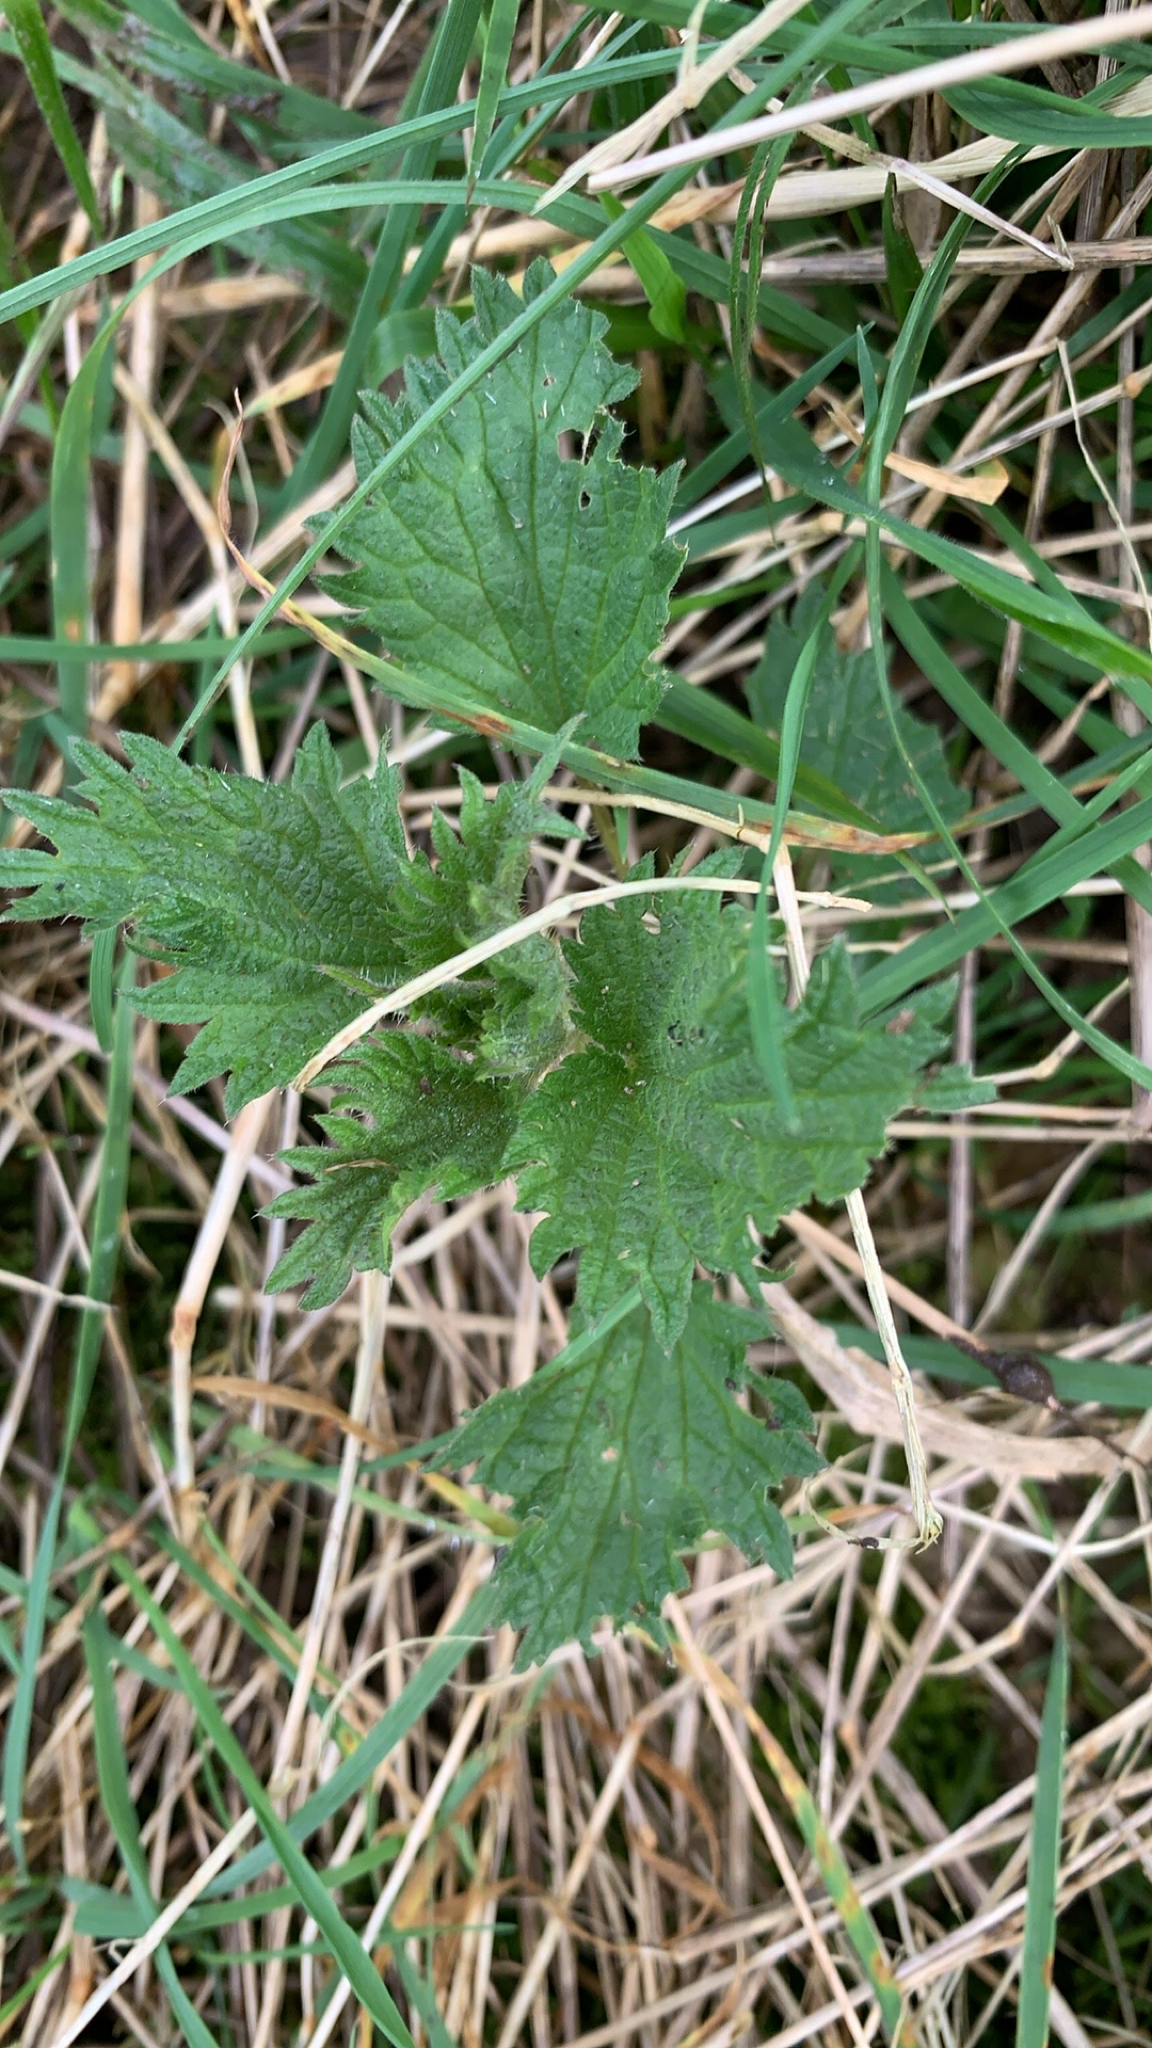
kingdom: Plantae
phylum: Tracheophyta
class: Magnoliopsida
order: Rosales
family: Urticaceae
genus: Urtica
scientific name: Urtica dioica
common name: Common nettle
